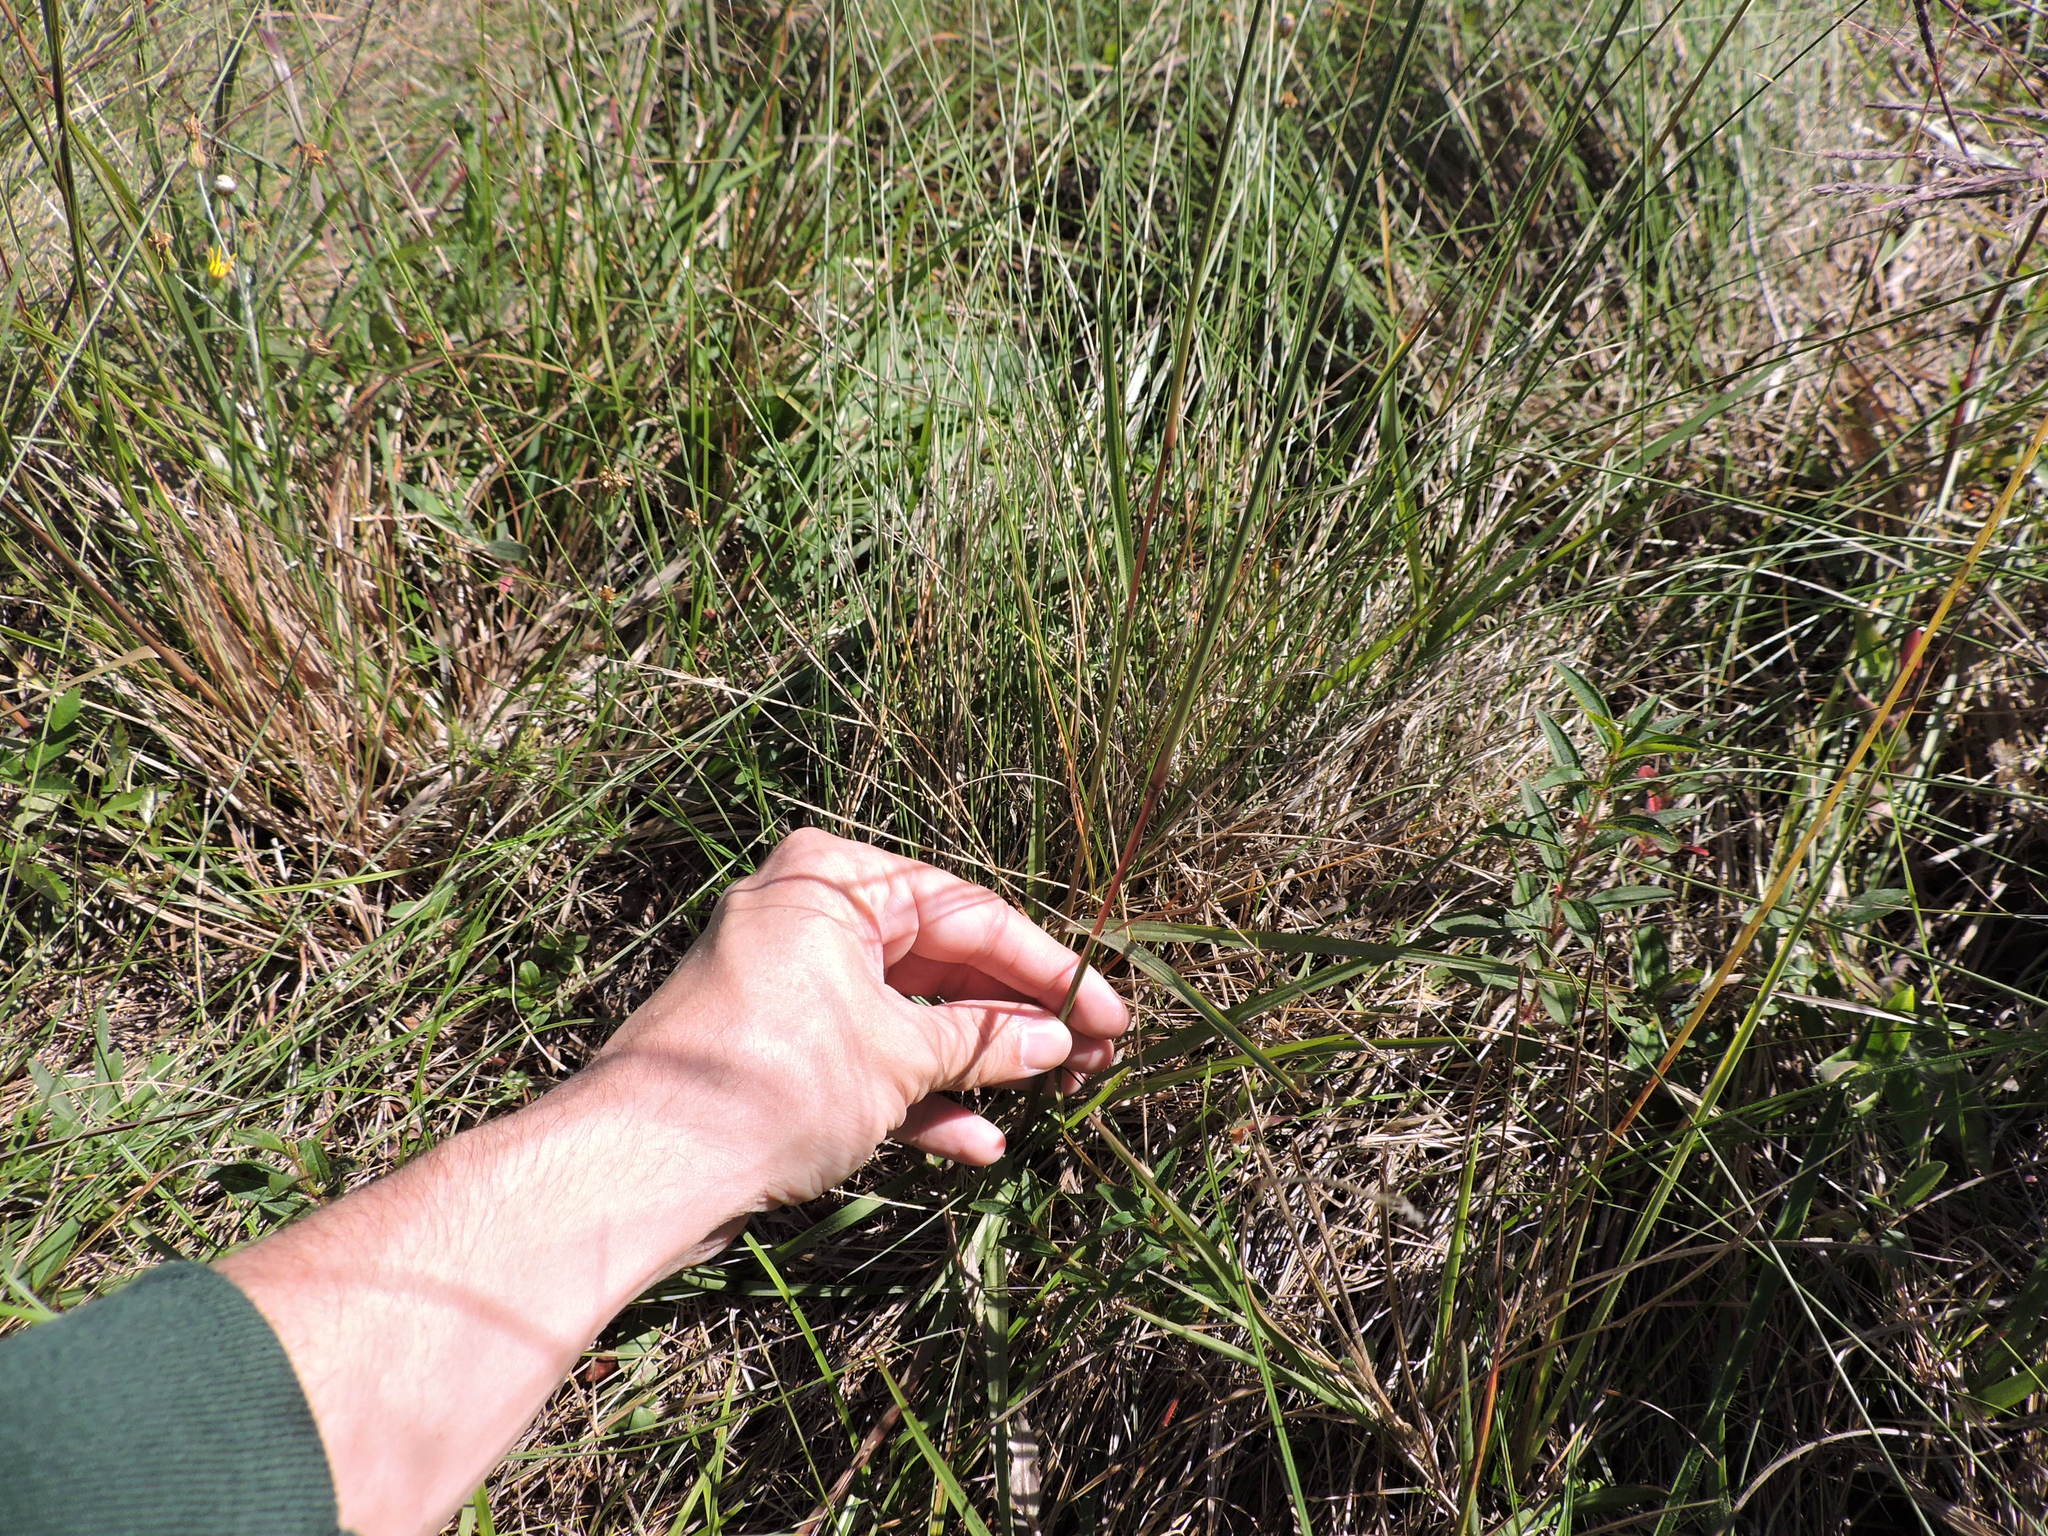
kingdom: Plantae
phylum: Tracheophyta
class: Liliopsida
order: Poales
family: Poaceae
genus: Anthenantia
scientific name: Anthenantia villosa
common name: Green silkyscale
